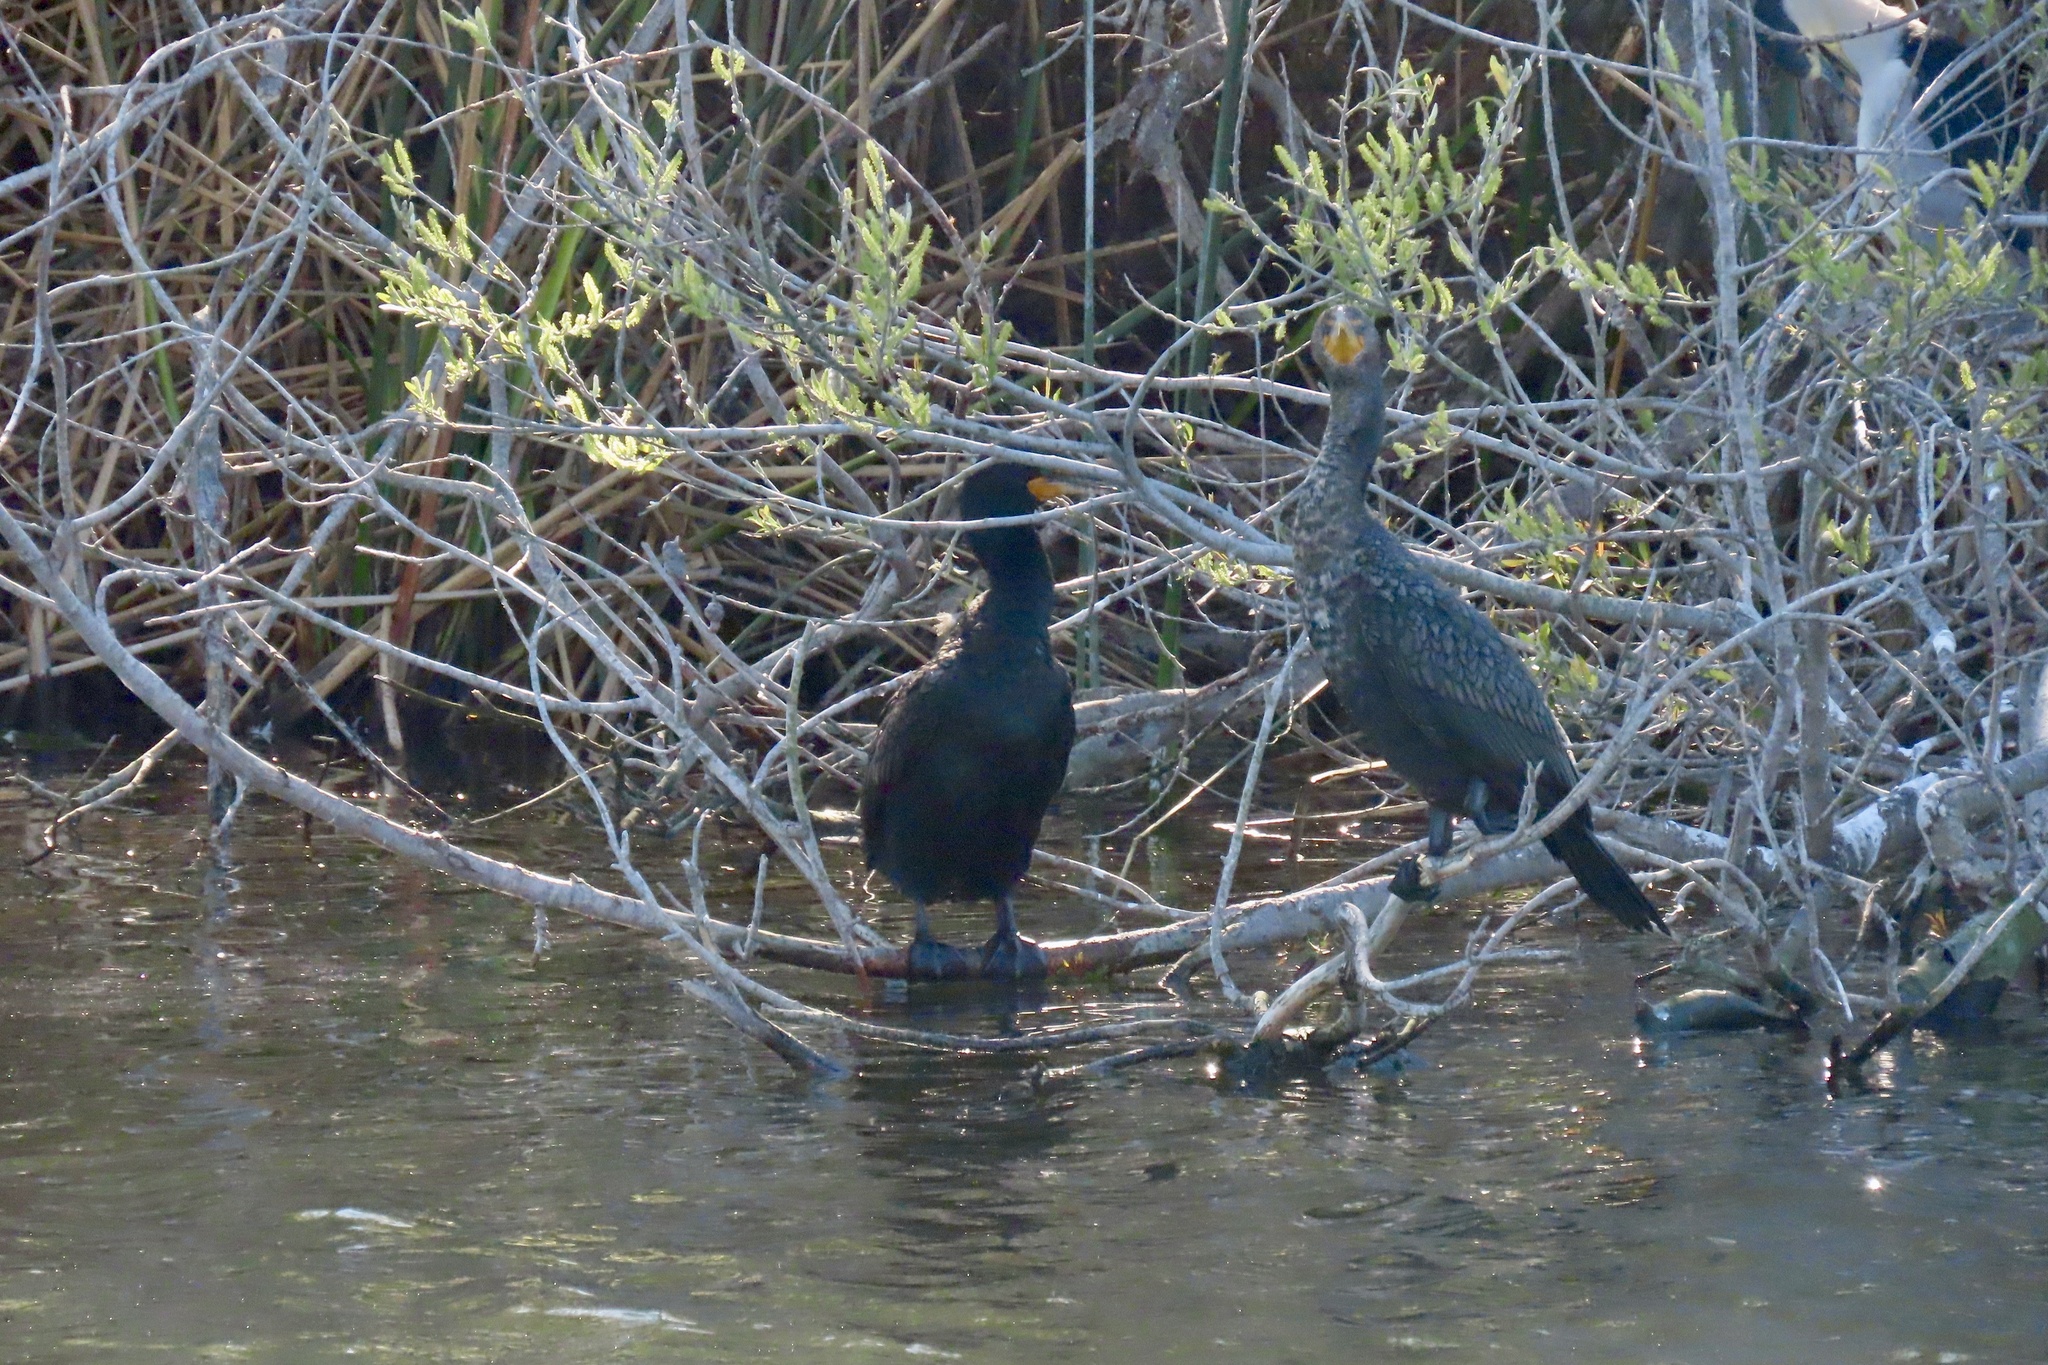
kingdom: Animalia
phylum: Chordata
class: Aves
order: Suliformes
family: Phalacrocoracidae
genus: Phalacrocorax
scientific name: Phalacrocorax auritus
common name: Double-crested cormorant
